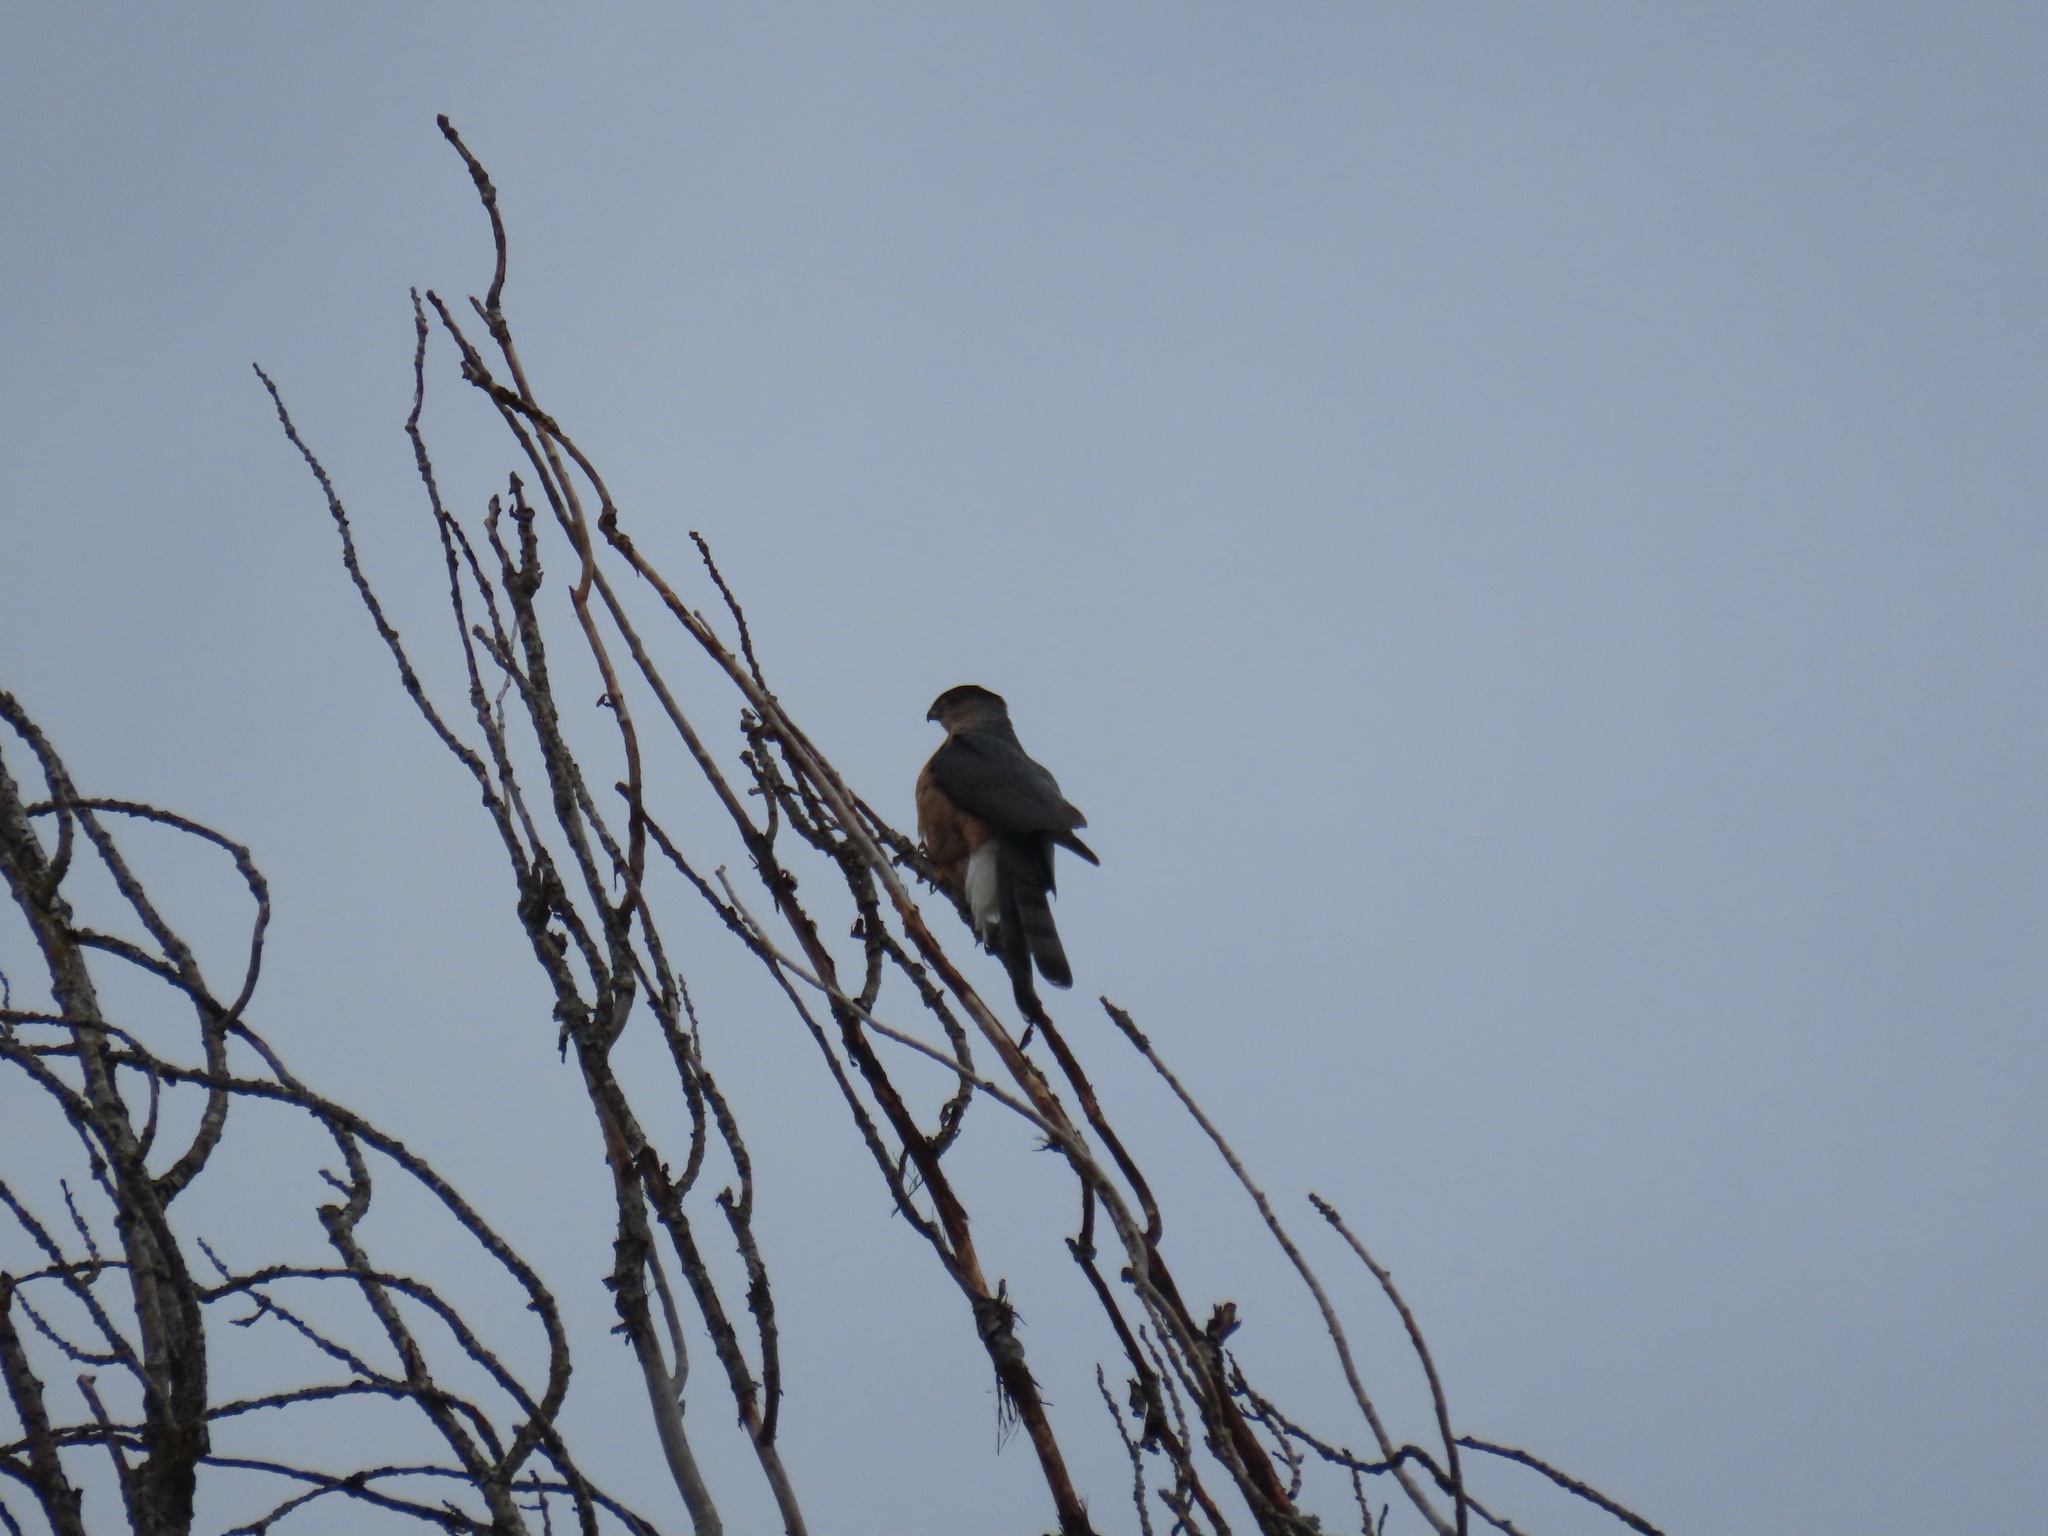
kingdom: Animalia
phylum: Chordata
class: Aves
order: Accipitriformes
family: Accipitridae
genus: Accipiter
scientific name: Accipiter cooperii
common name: Cooper's hawk
